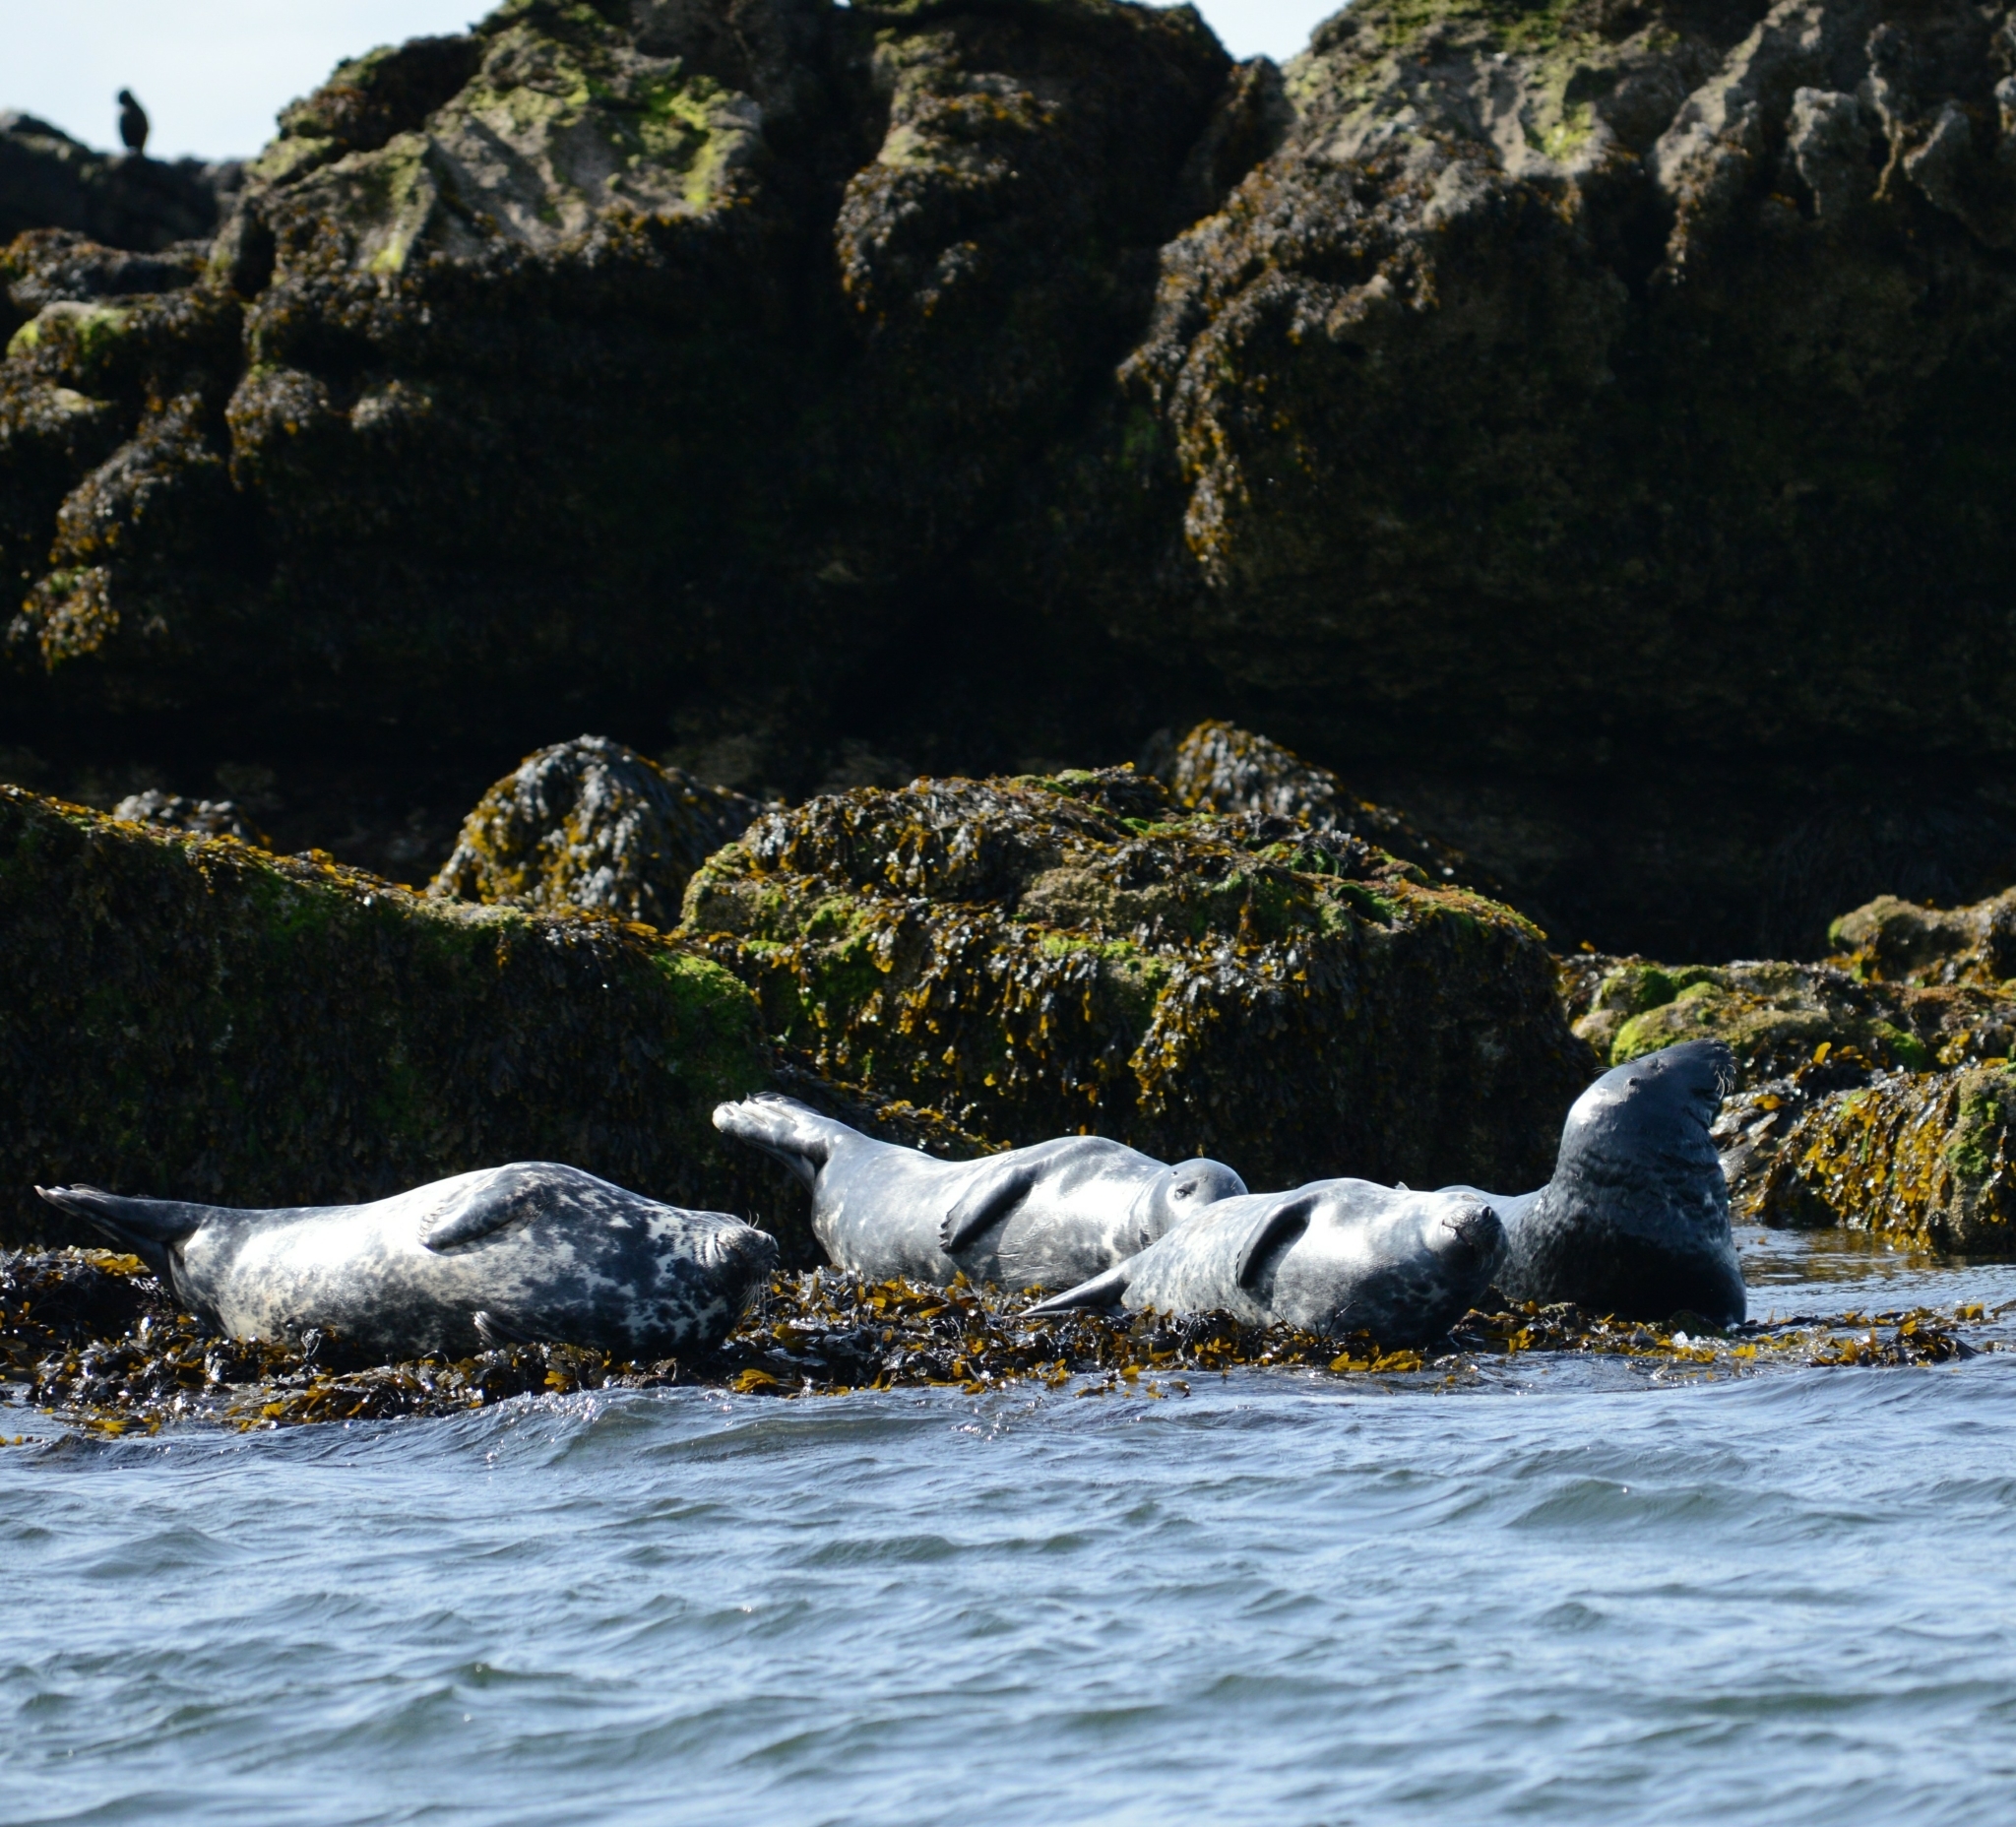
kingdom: Animalia
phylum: Chordata
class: Mammalia
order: Carnivora
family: Phocidae
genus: Halichoerus
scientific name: Halichoerus grypus
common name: Grey seal
